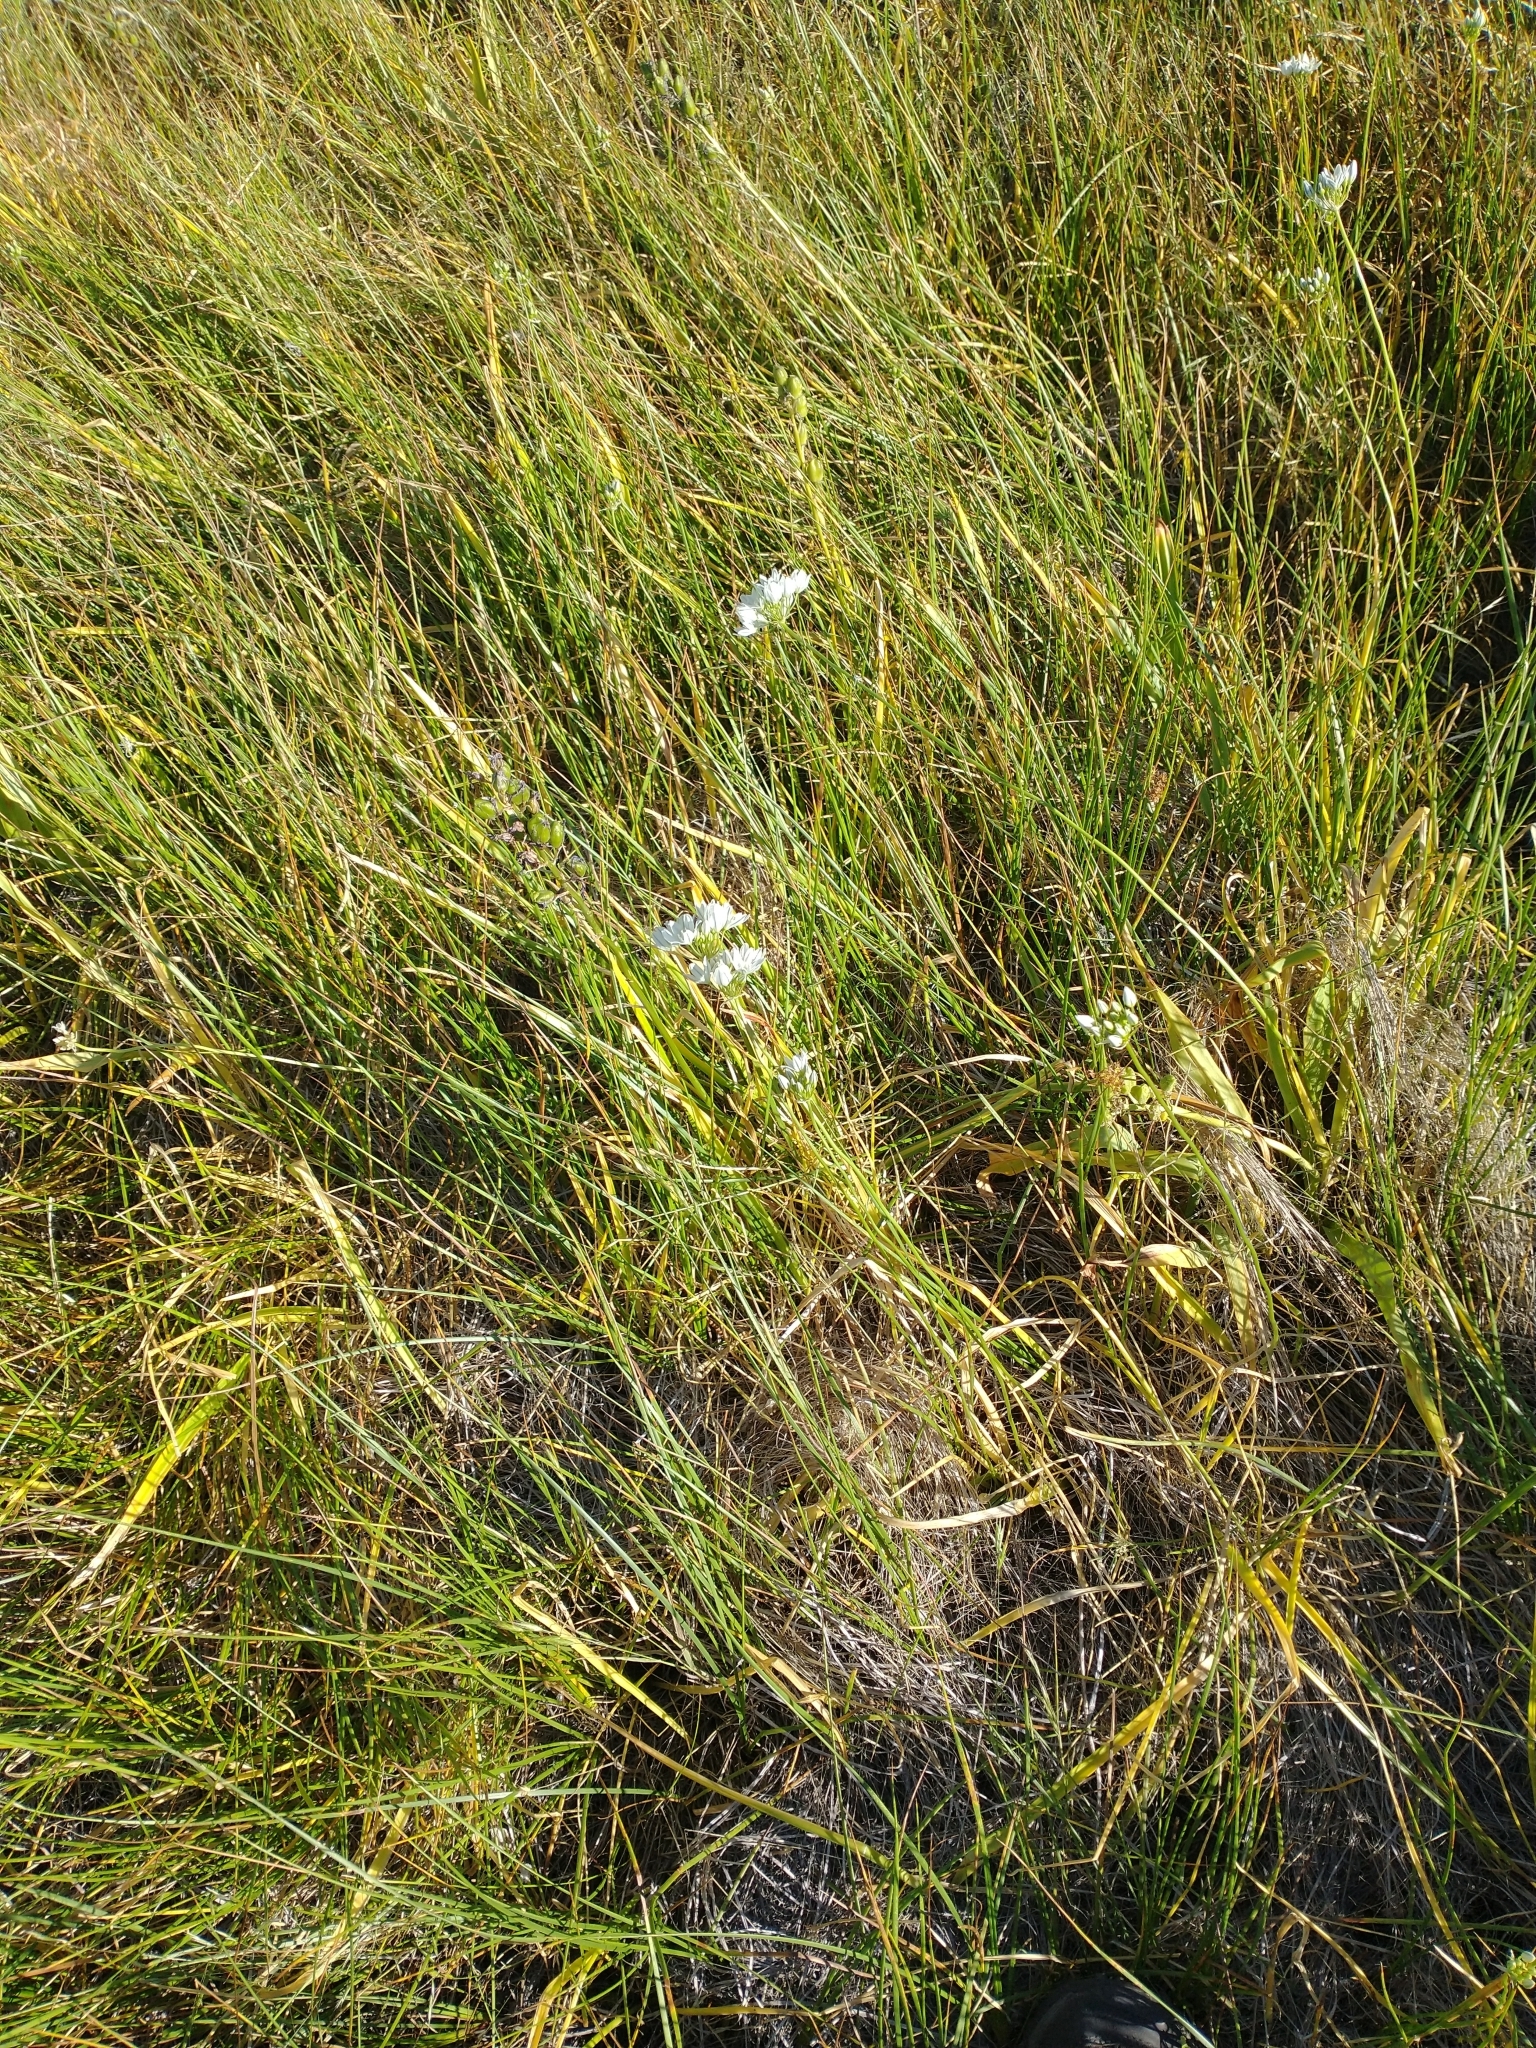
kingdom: Plantae
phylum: Tracheophyta
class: Liliopsida
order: Asparagales
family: Asparagaceae
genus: Triteleia
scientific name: Triteleia hyacinthina
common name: White brodiaea
